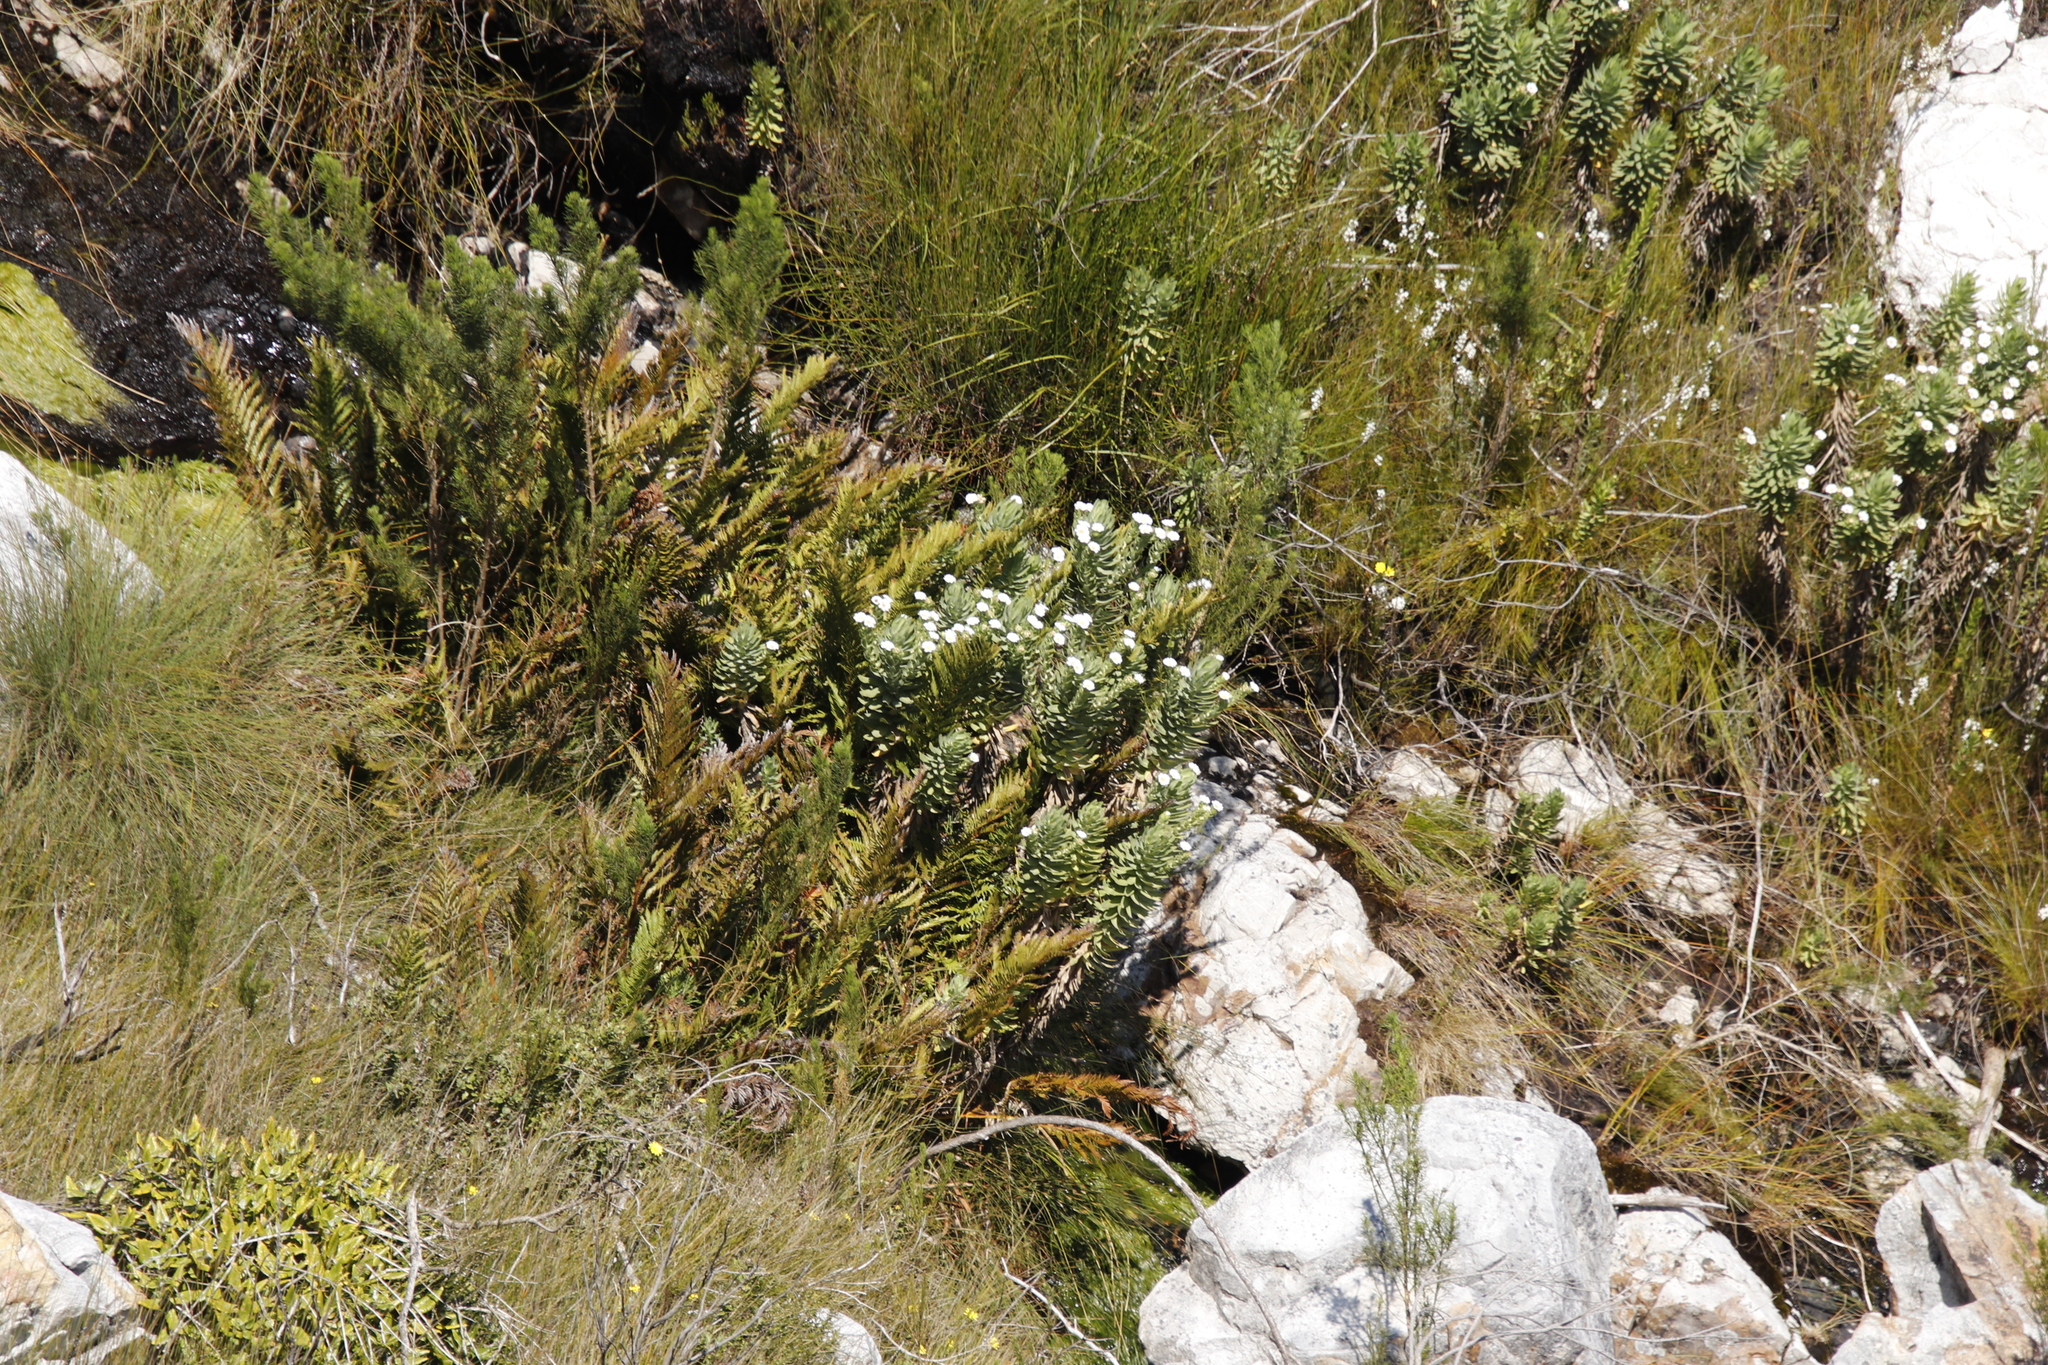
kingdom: Plantae
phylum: Tracheophyta
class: Magnoliopsida
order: Asterales
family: Asteraceae
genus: Osmitopsis
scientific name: Osmitopsis asteriscoides
